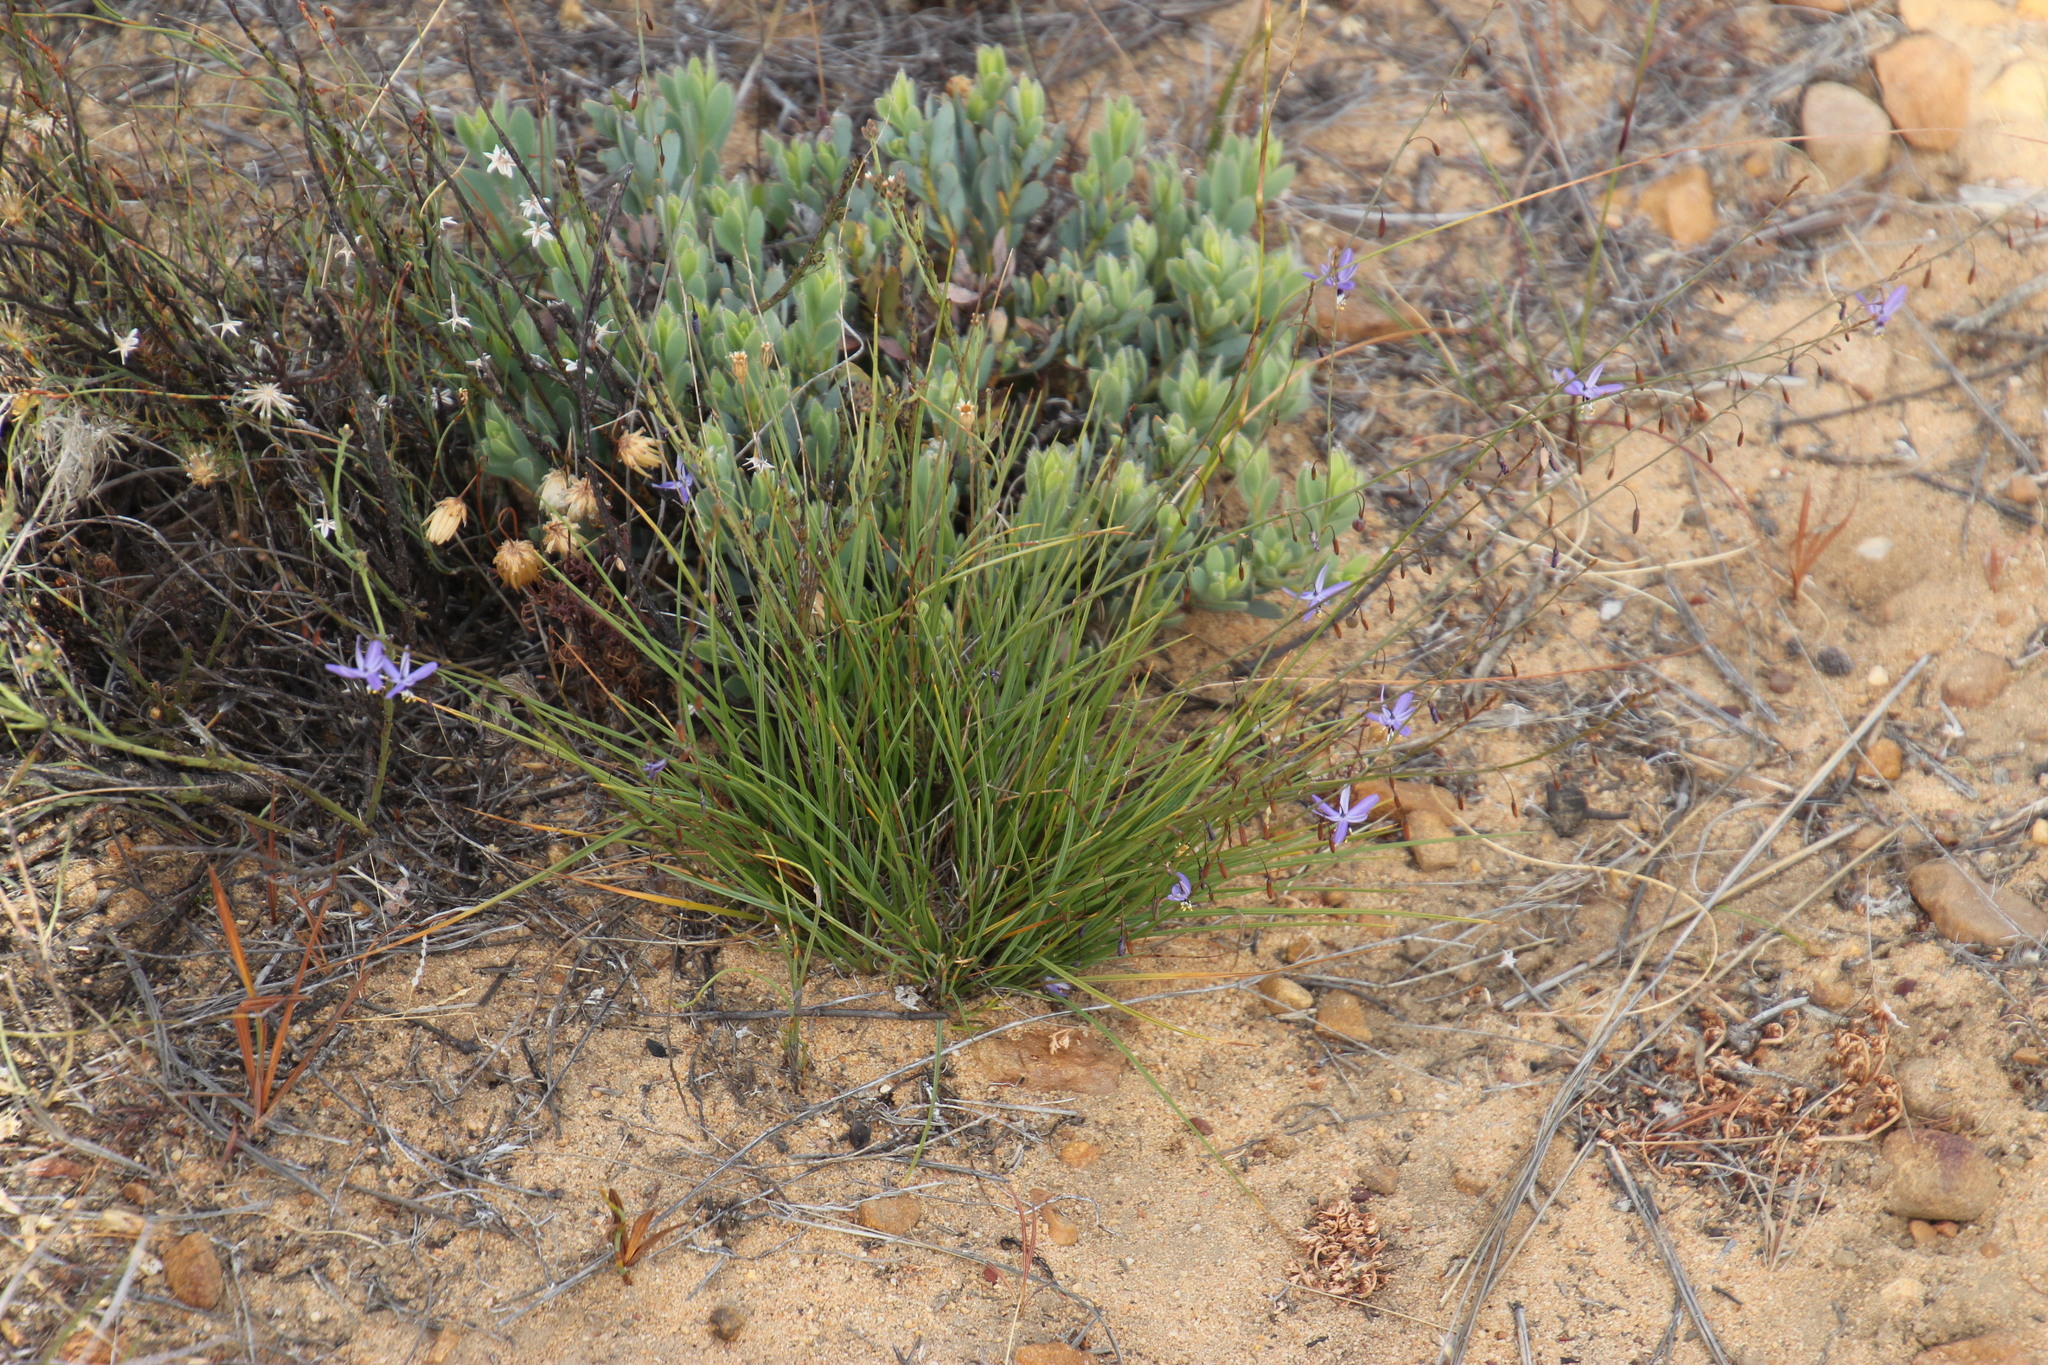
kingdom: Plantae
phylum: Tracheophyta
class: Liliopsida
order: Asparagales
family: Asphodelaceae
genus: Caesia
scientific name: Caesia contorta
